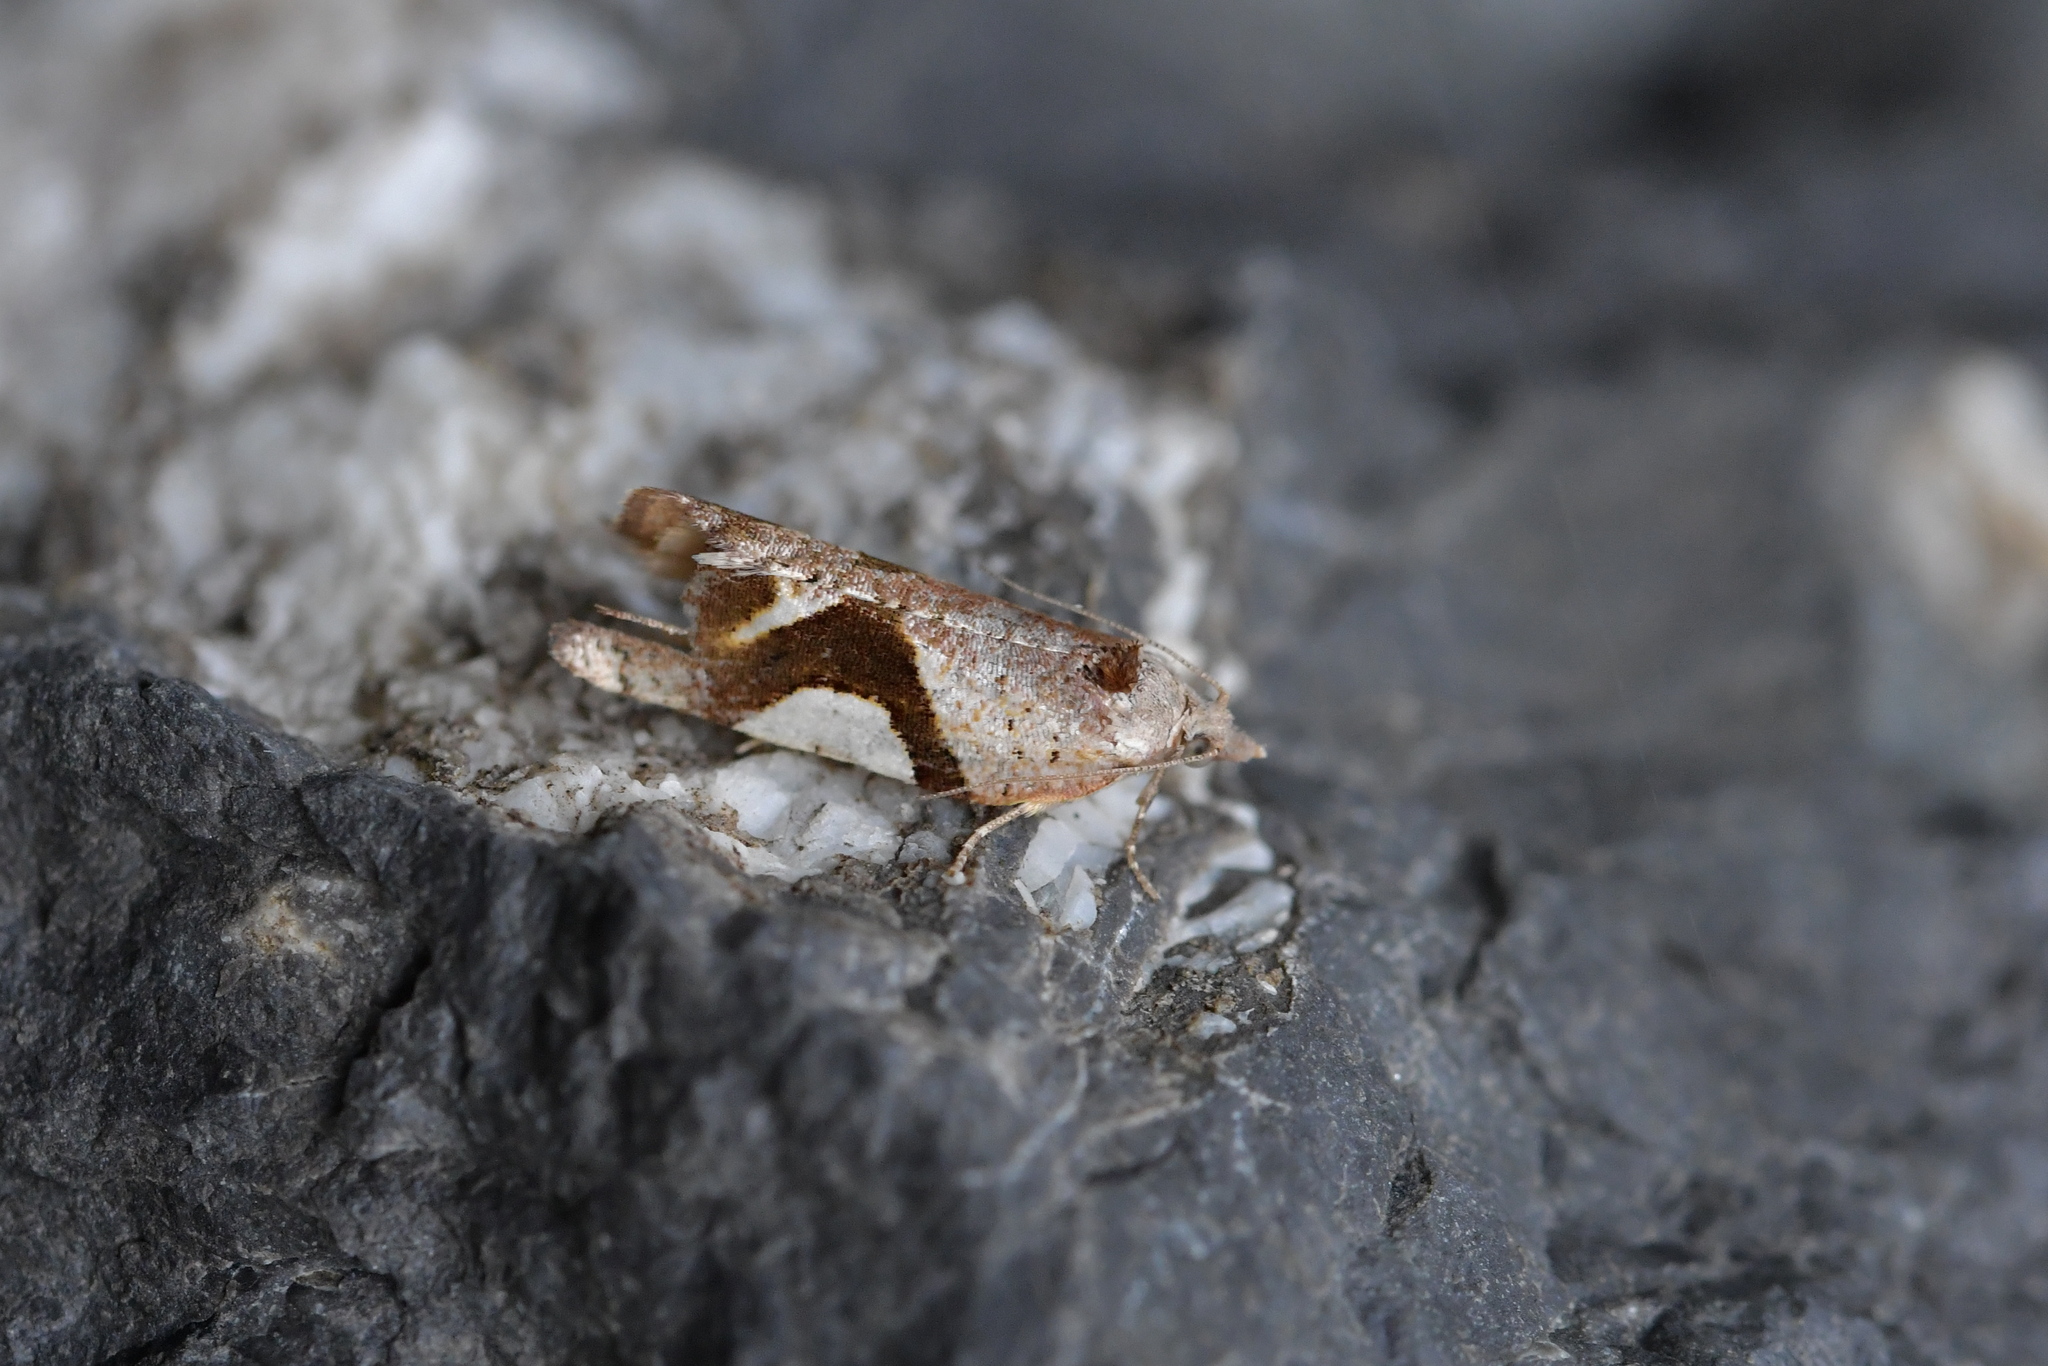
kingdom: Animalia
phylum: Arthropoda
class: Insecta
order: Lepidoptera
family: Tortricidae
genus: Pyrgotis
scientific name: Pyrgotis plagiatana
